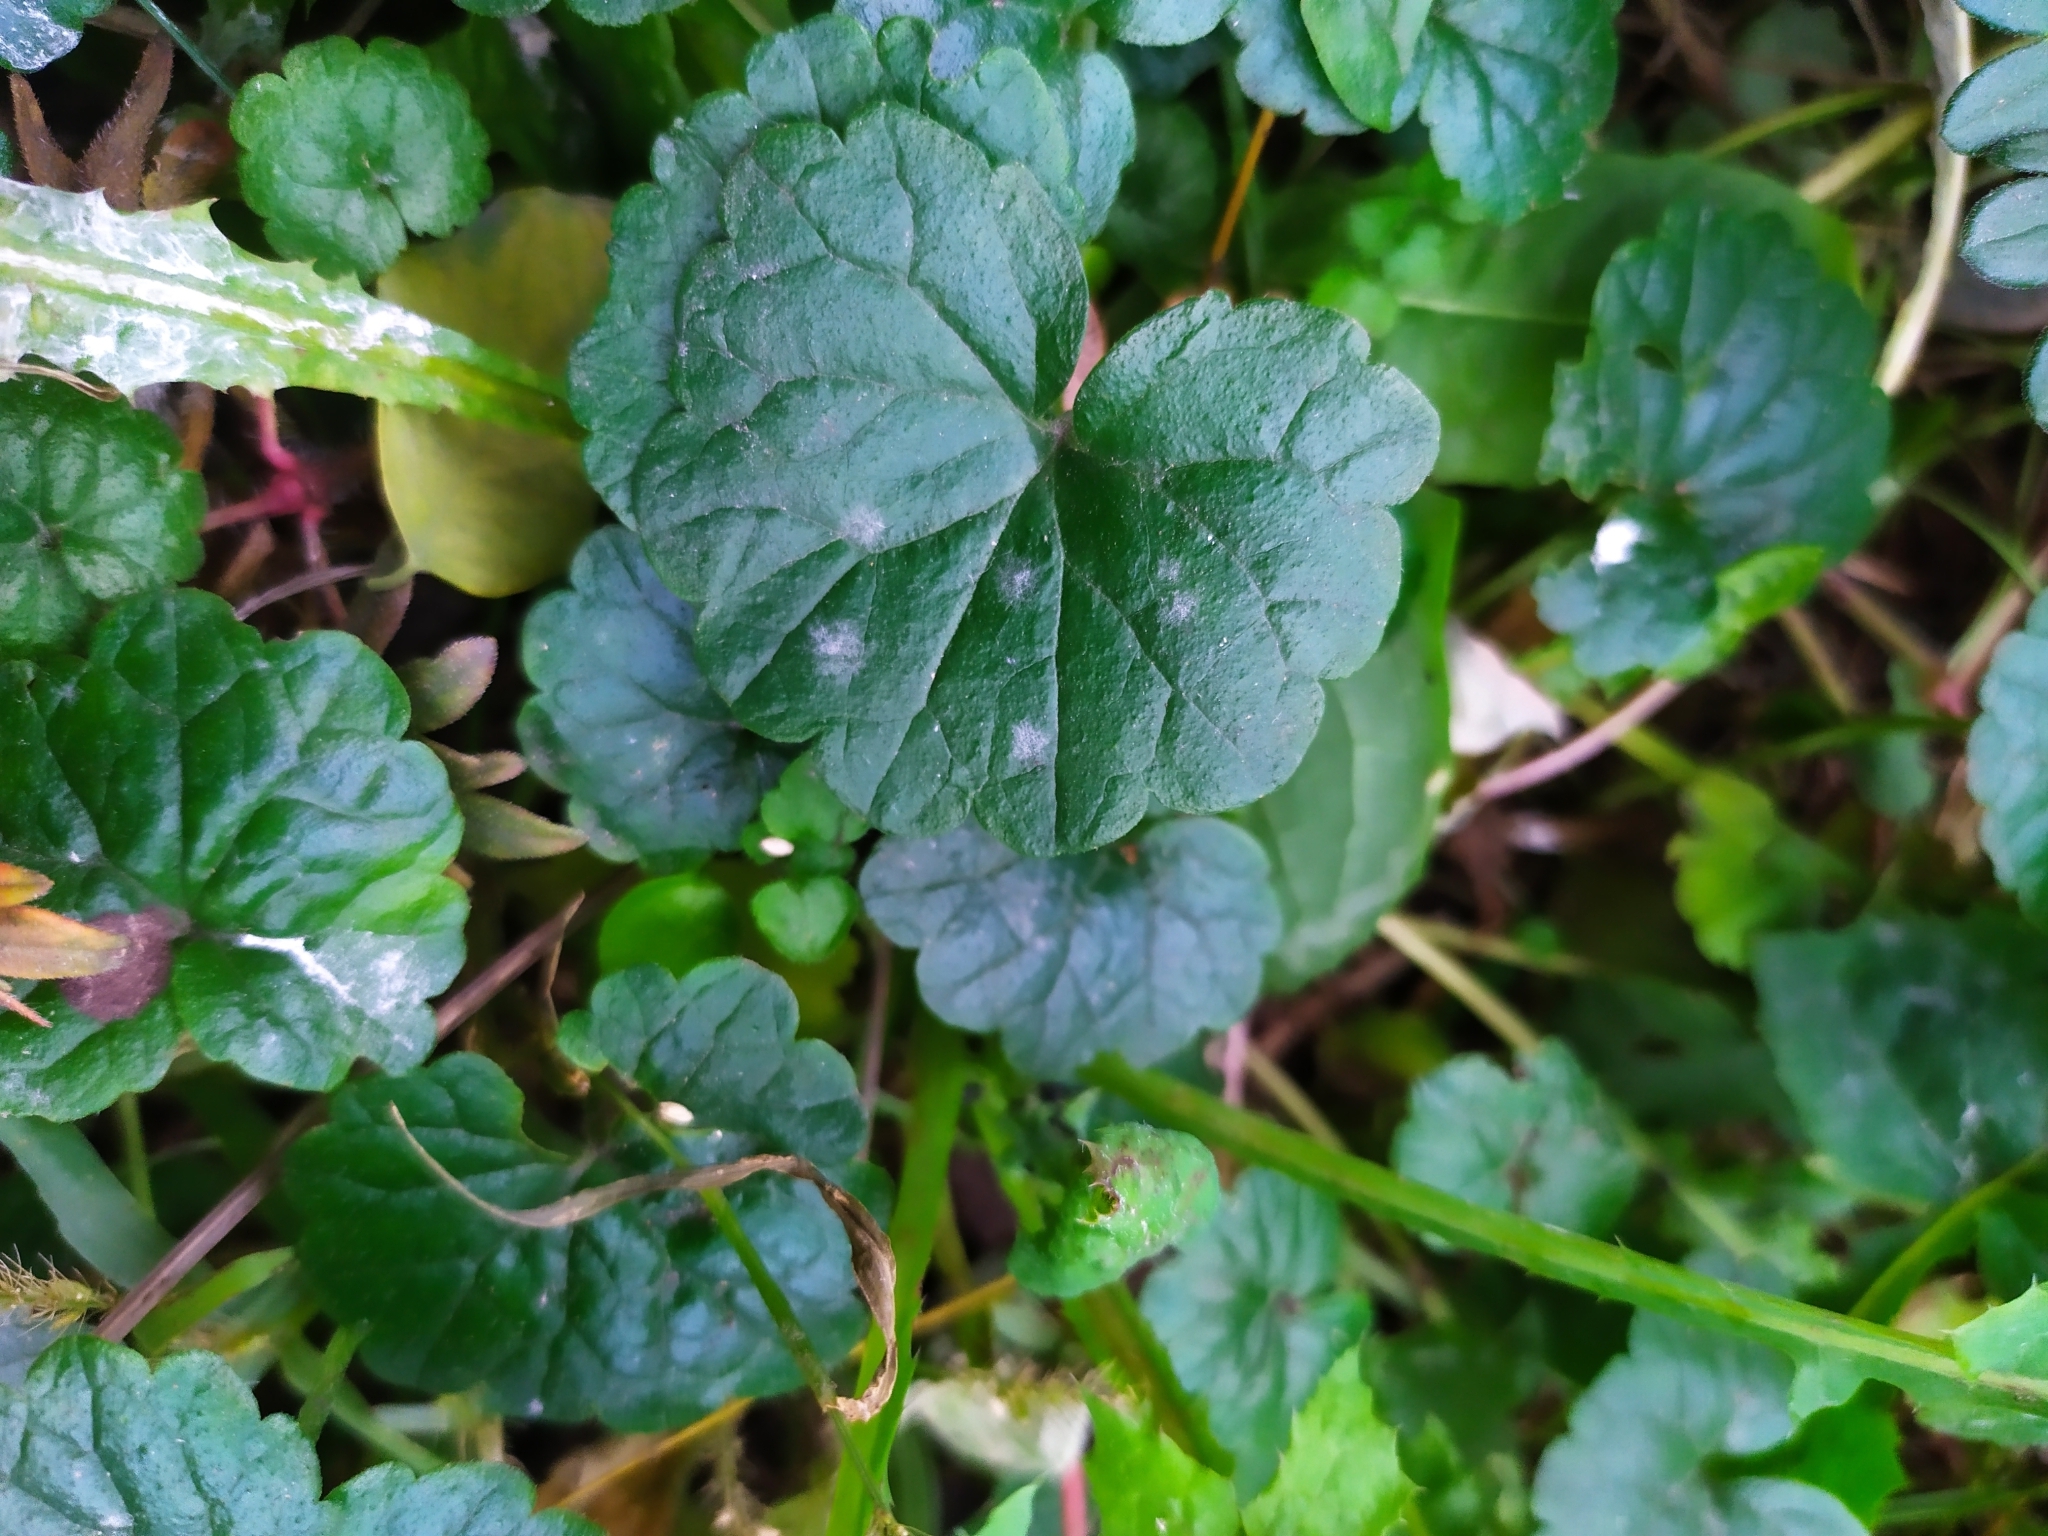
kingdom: Plantae
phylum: Tracheophyta
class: Magnoliopsida
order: Lamiales
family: Lamiaceae
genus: Glechoma
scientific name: Glechoma hederacea
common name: Ground ivy
